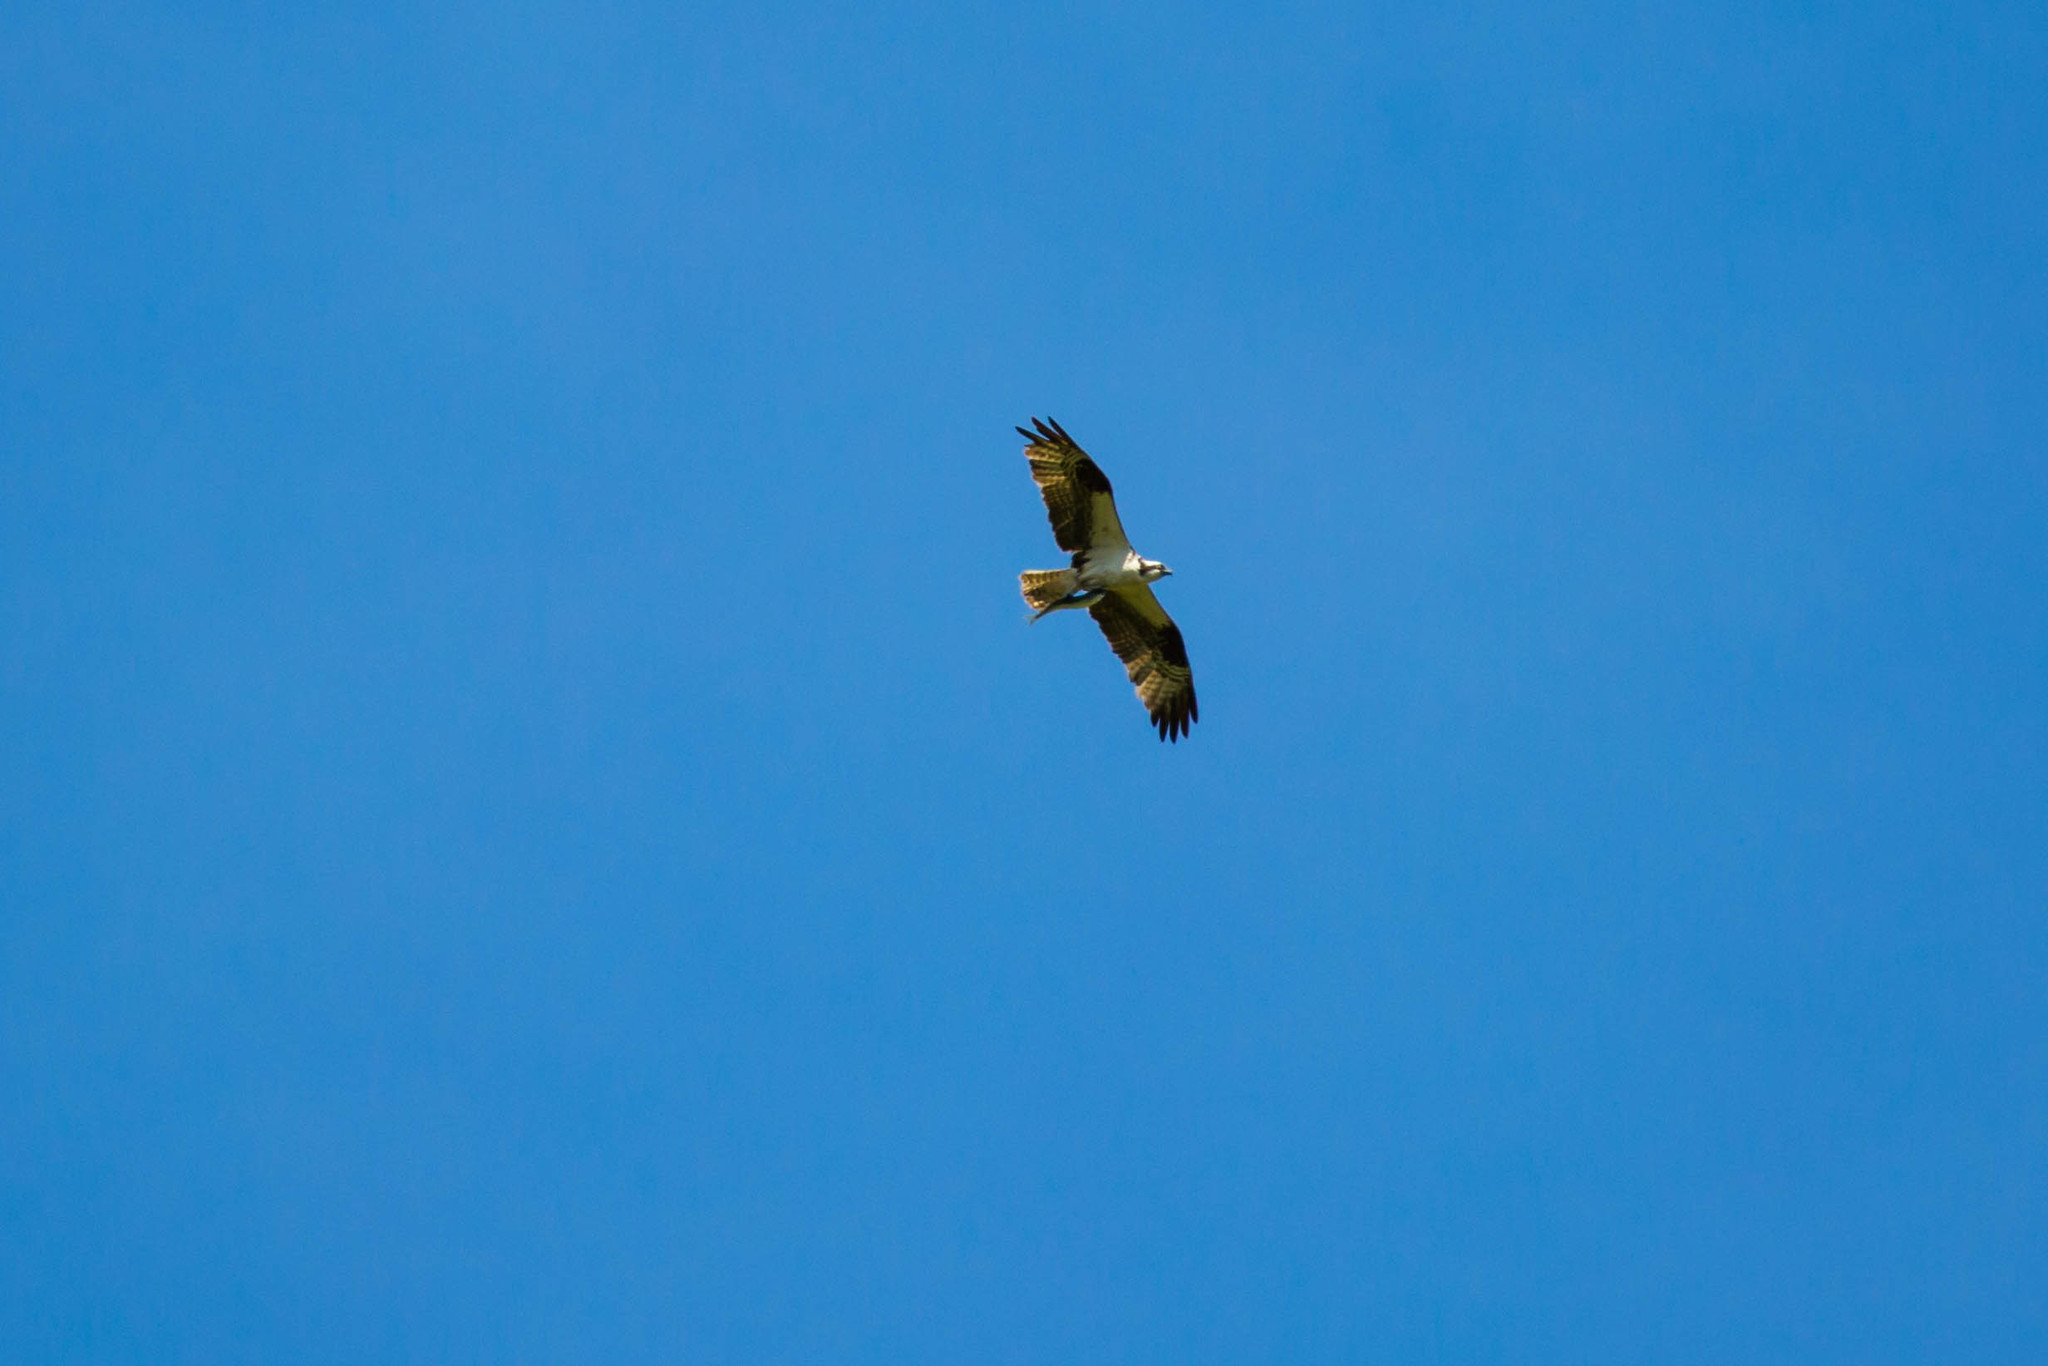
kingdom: Animalia
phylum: Chordata
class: Aves
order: Accipitriformes
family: Pandionidae
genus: Pandion
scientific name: Pandion haliaetus
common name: Osprey
